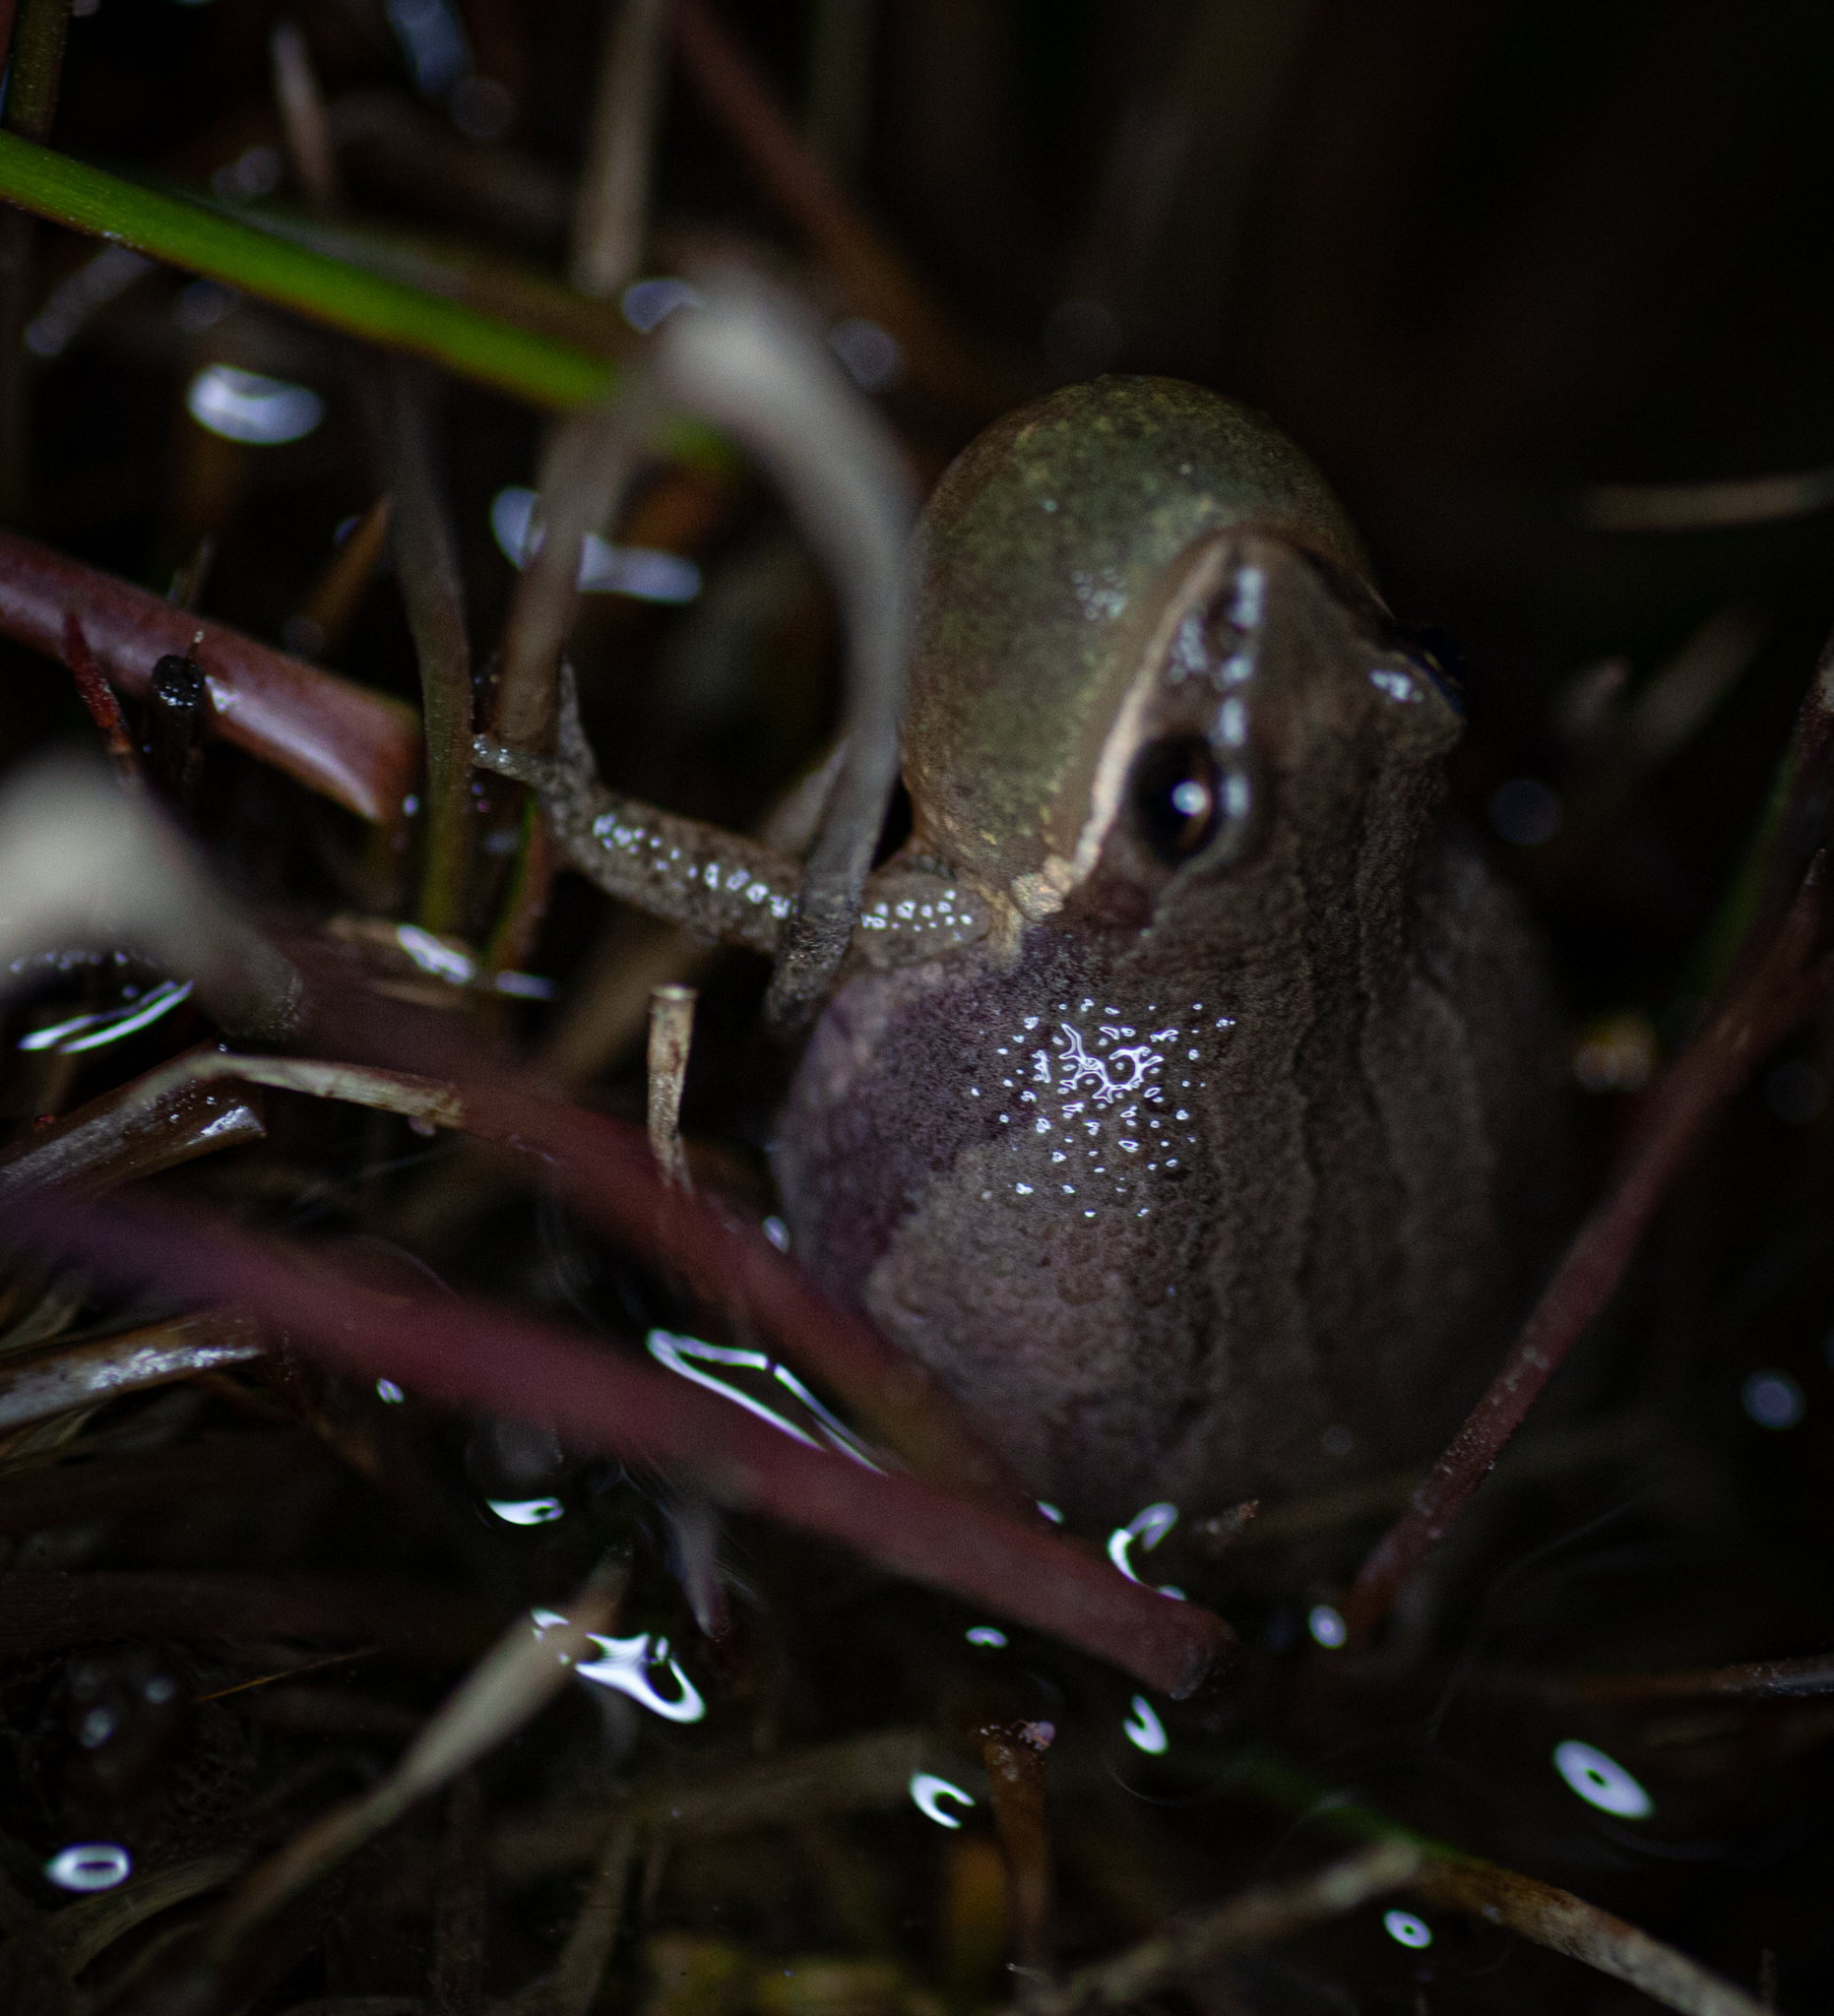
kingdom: Animalia
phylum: Chordata
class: Amphibia
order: Anura
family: Hylidae
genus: Pseudacris
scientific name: Pseudacris feriarum
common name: Upland chorus frog
